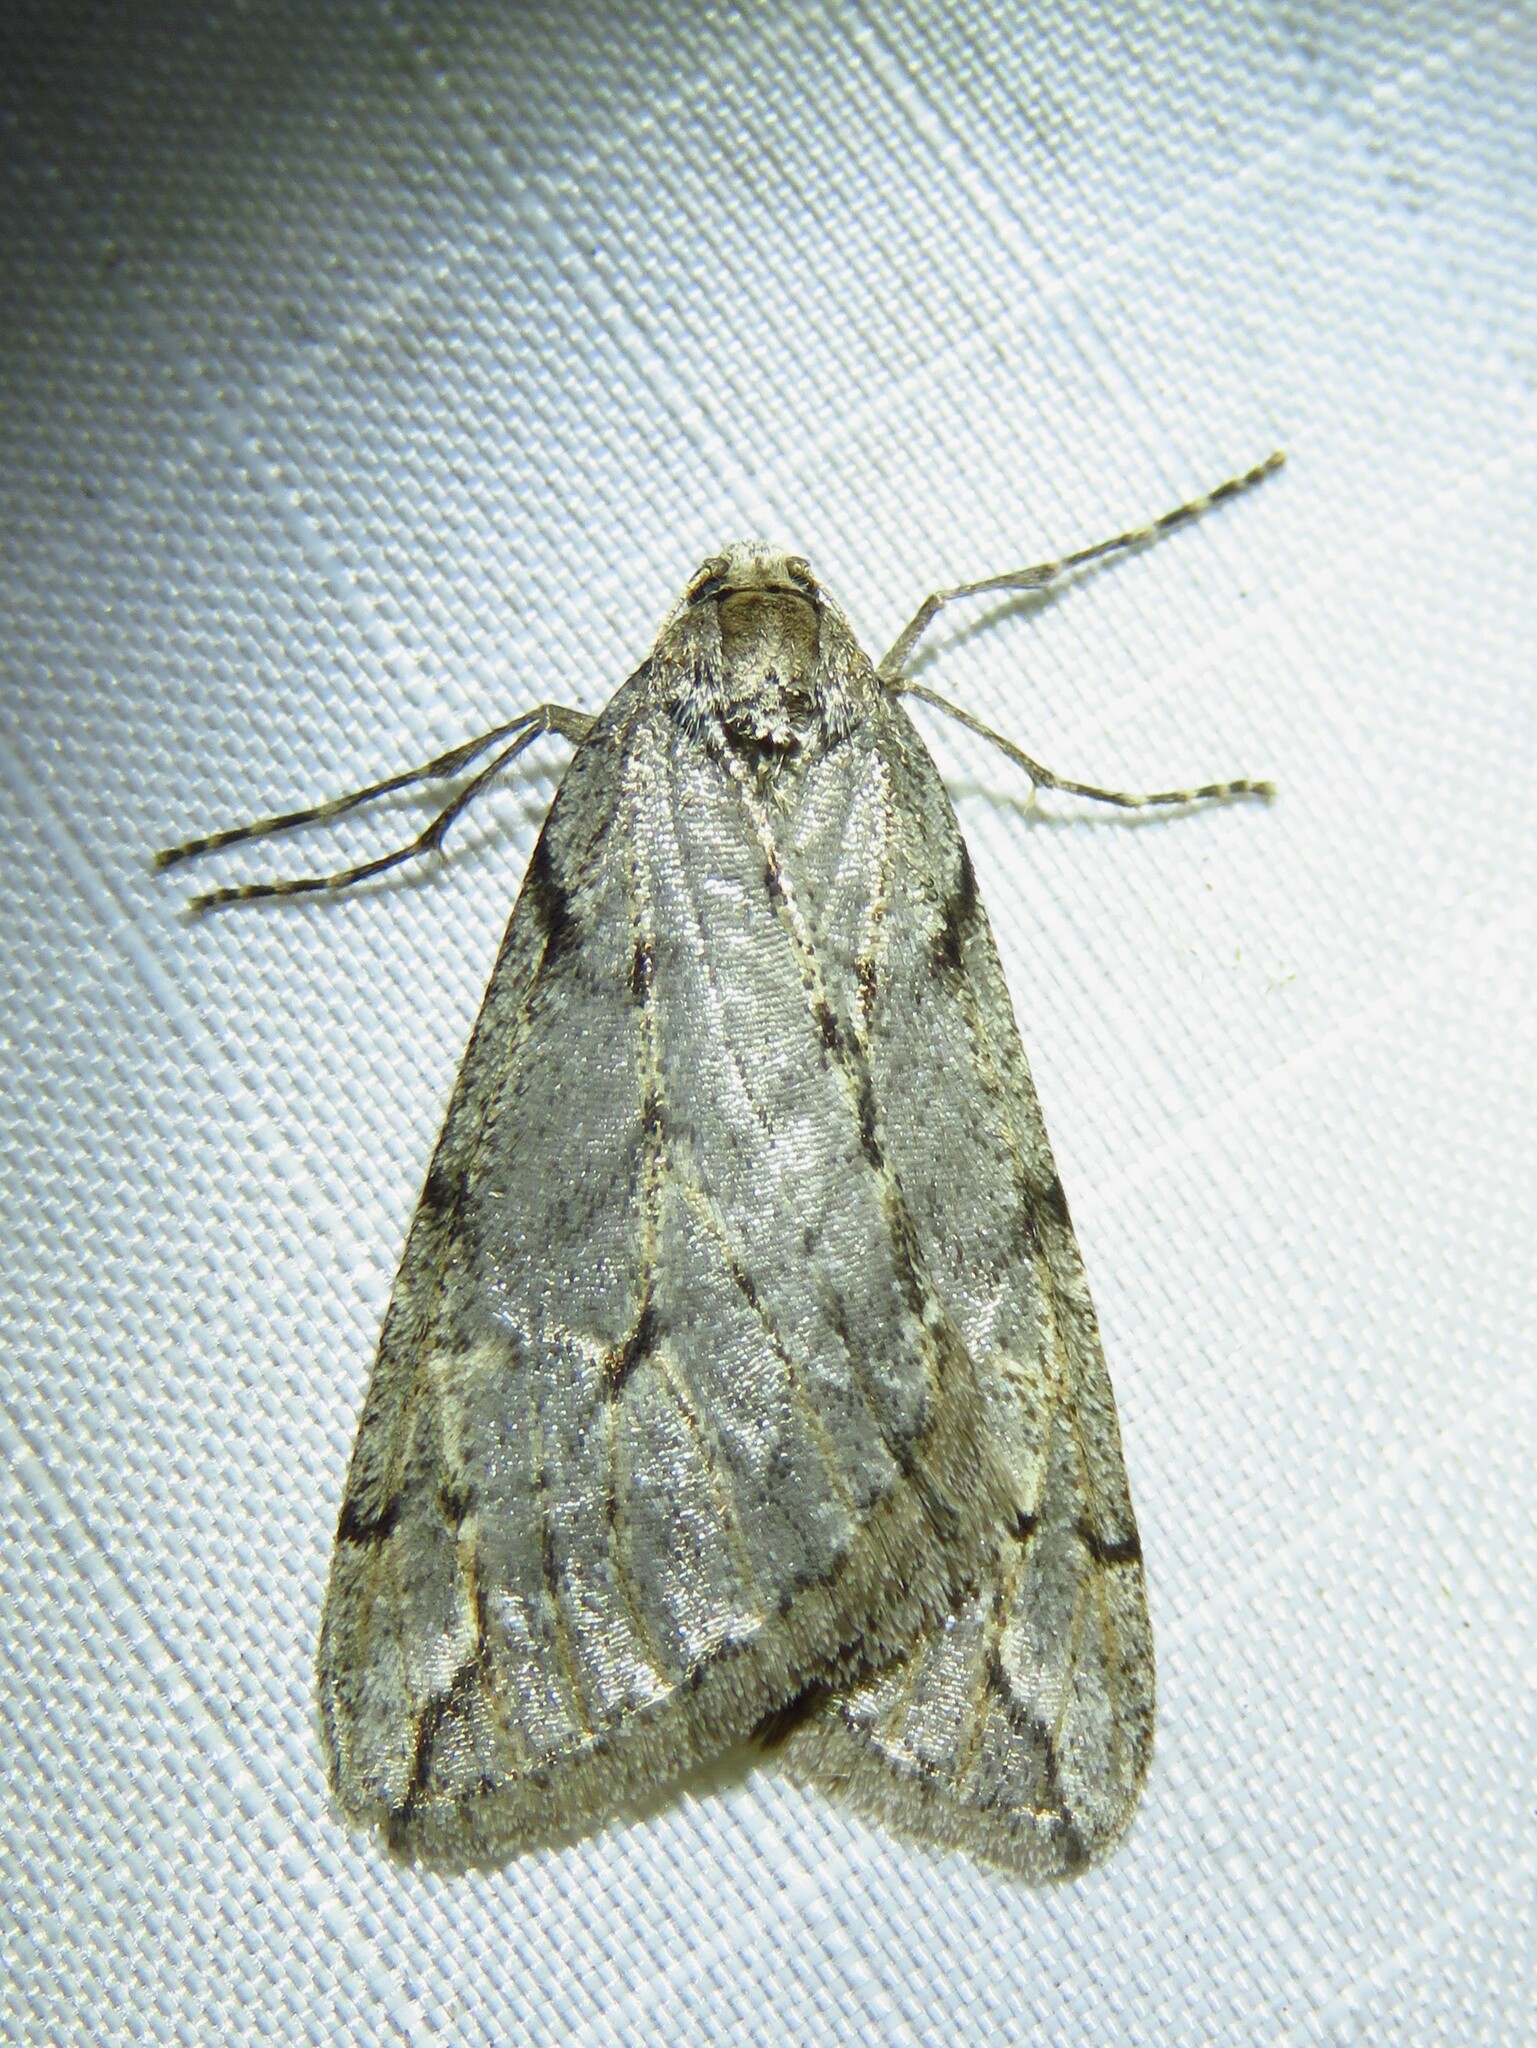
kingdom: Animalia
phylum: Arthropoda
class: Insecta
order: Lepidoptera
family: Geometridae
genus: Paleacrita
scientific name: Paleacrita vernata
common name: Spring cankerworm
